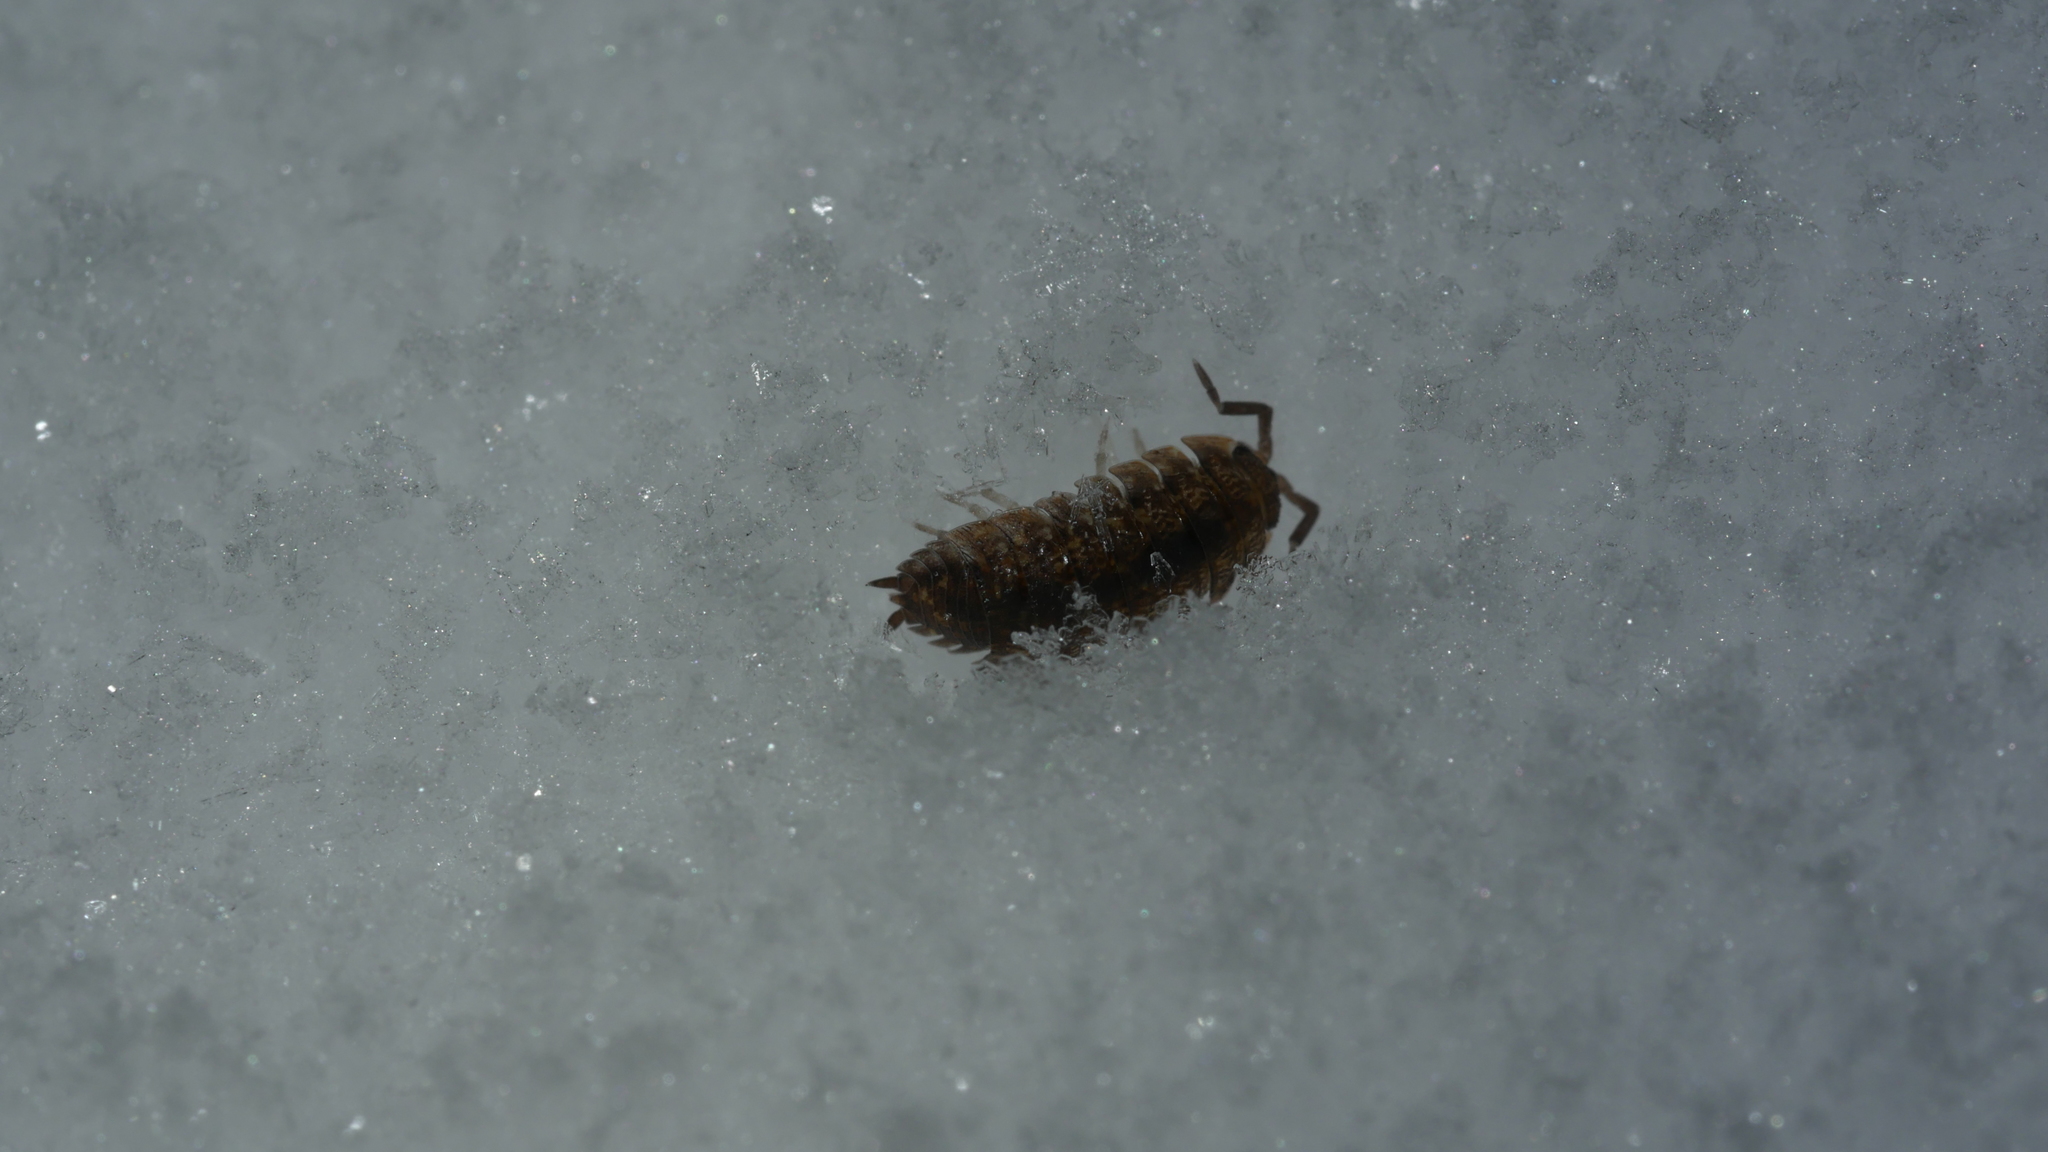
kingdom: Animalia
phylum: Arthropoda
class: Malacostraca
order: Isopoda
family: Porcellionidae
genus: Porcellio
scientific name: Porcellio scaber
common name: Common rough woodlouse
